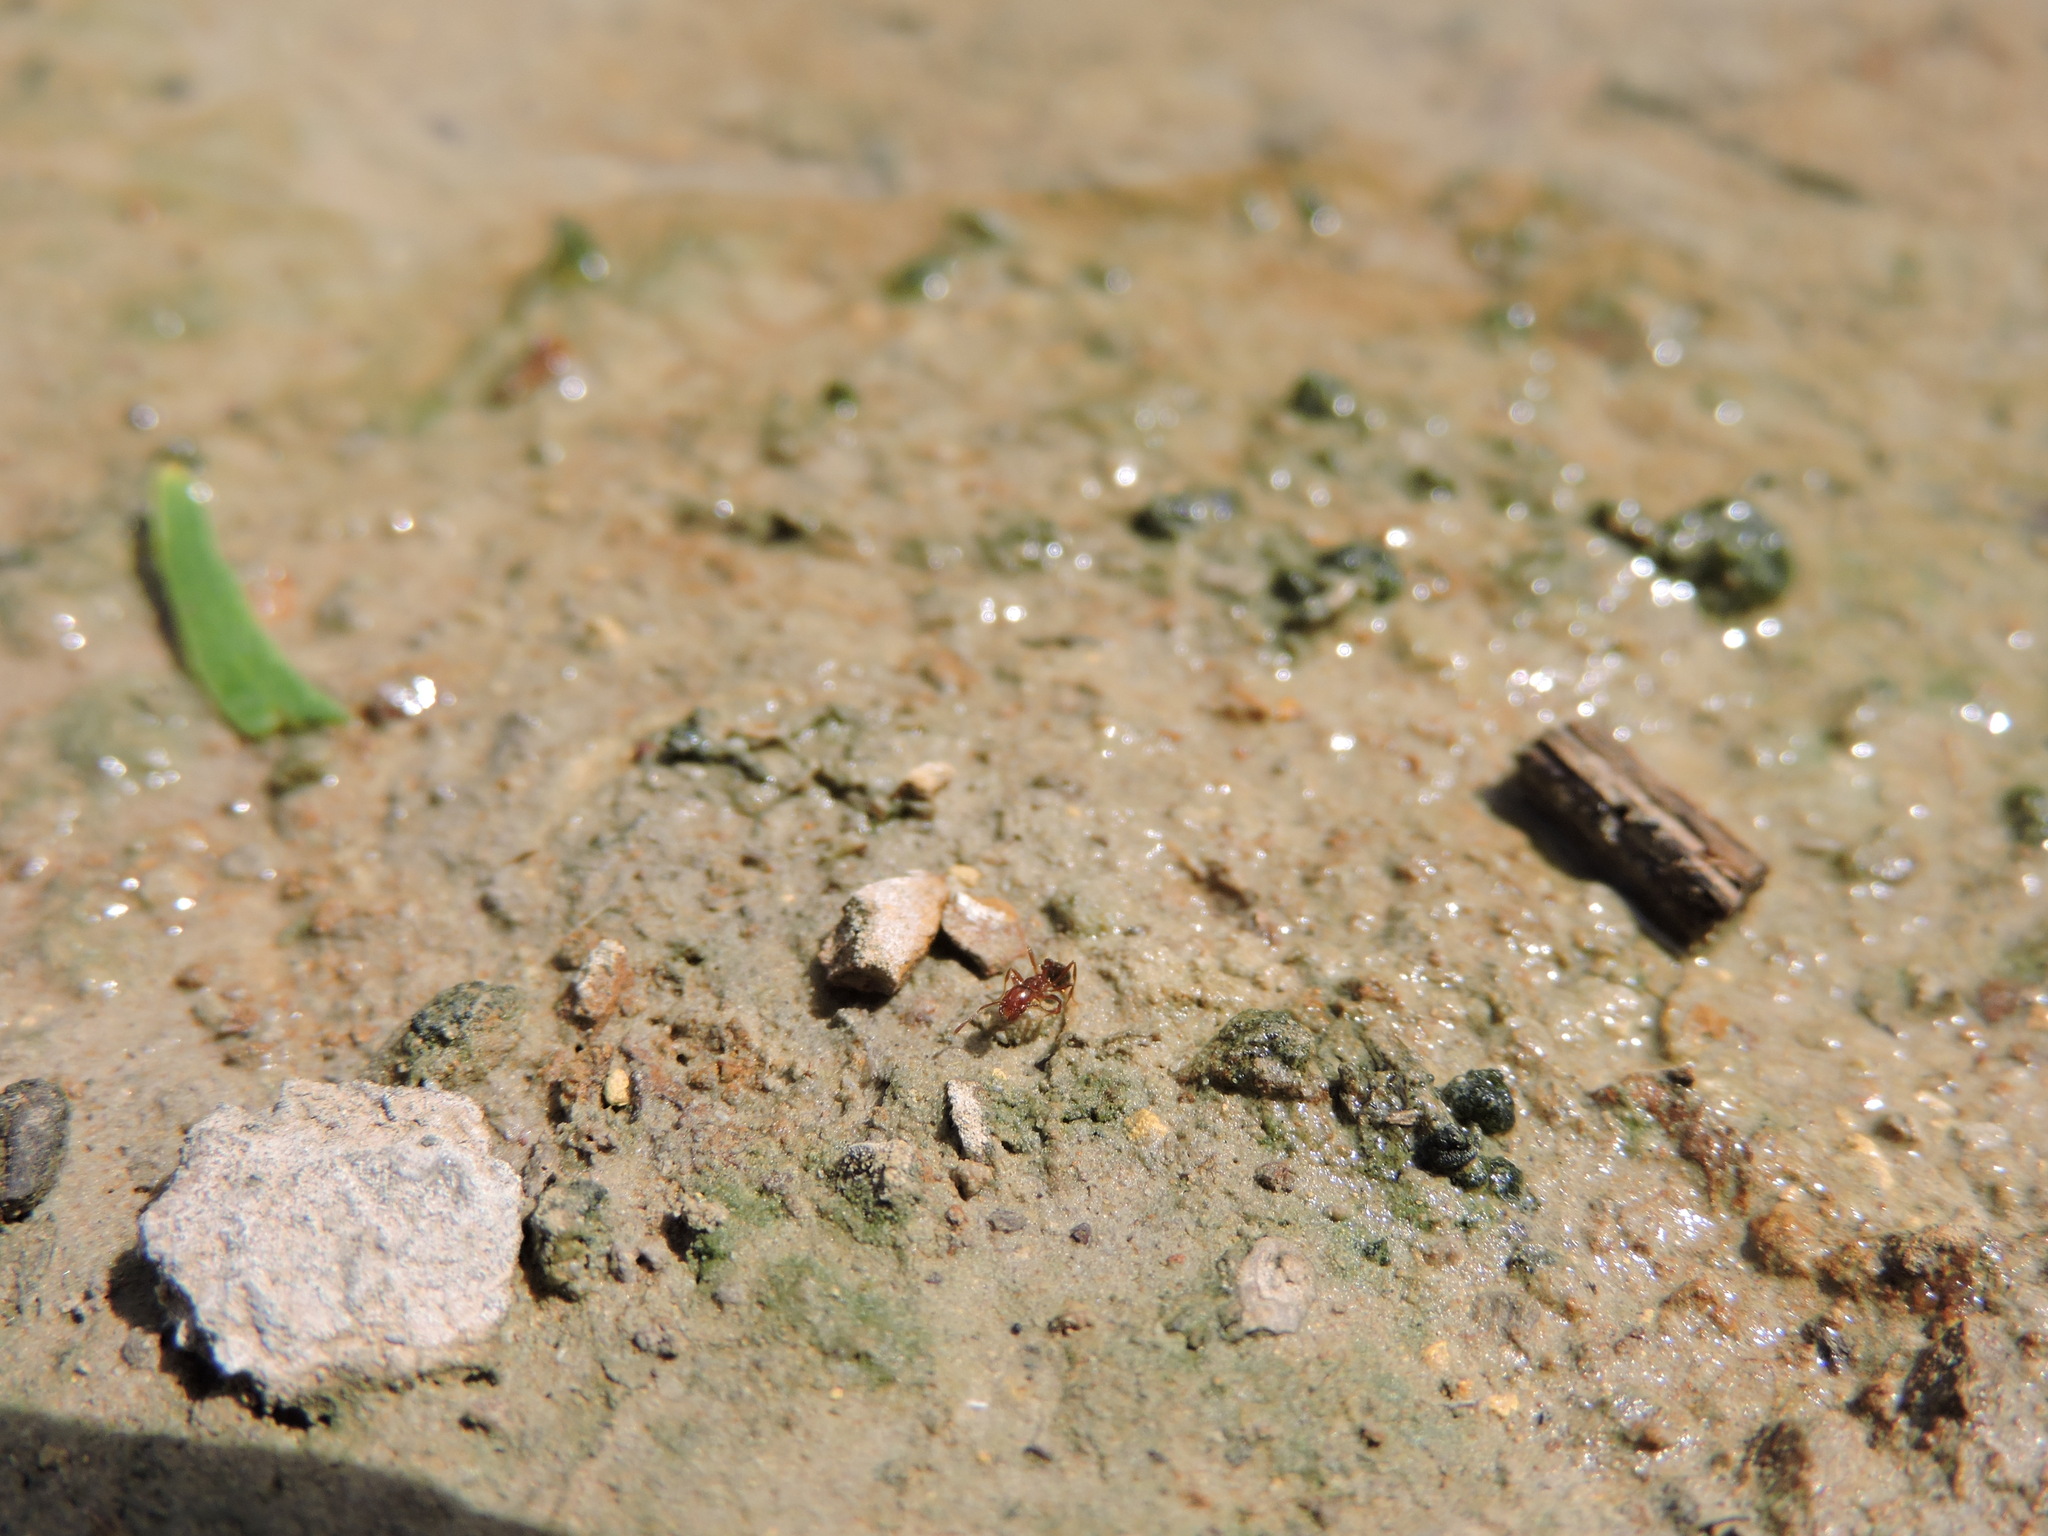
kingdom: Animalia
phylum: Arthropoda
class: Insecta
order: Hymenoptera
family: Formicidae
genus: Solenopsis
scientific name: Solenopsis invicta
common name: Red imported fire ant
